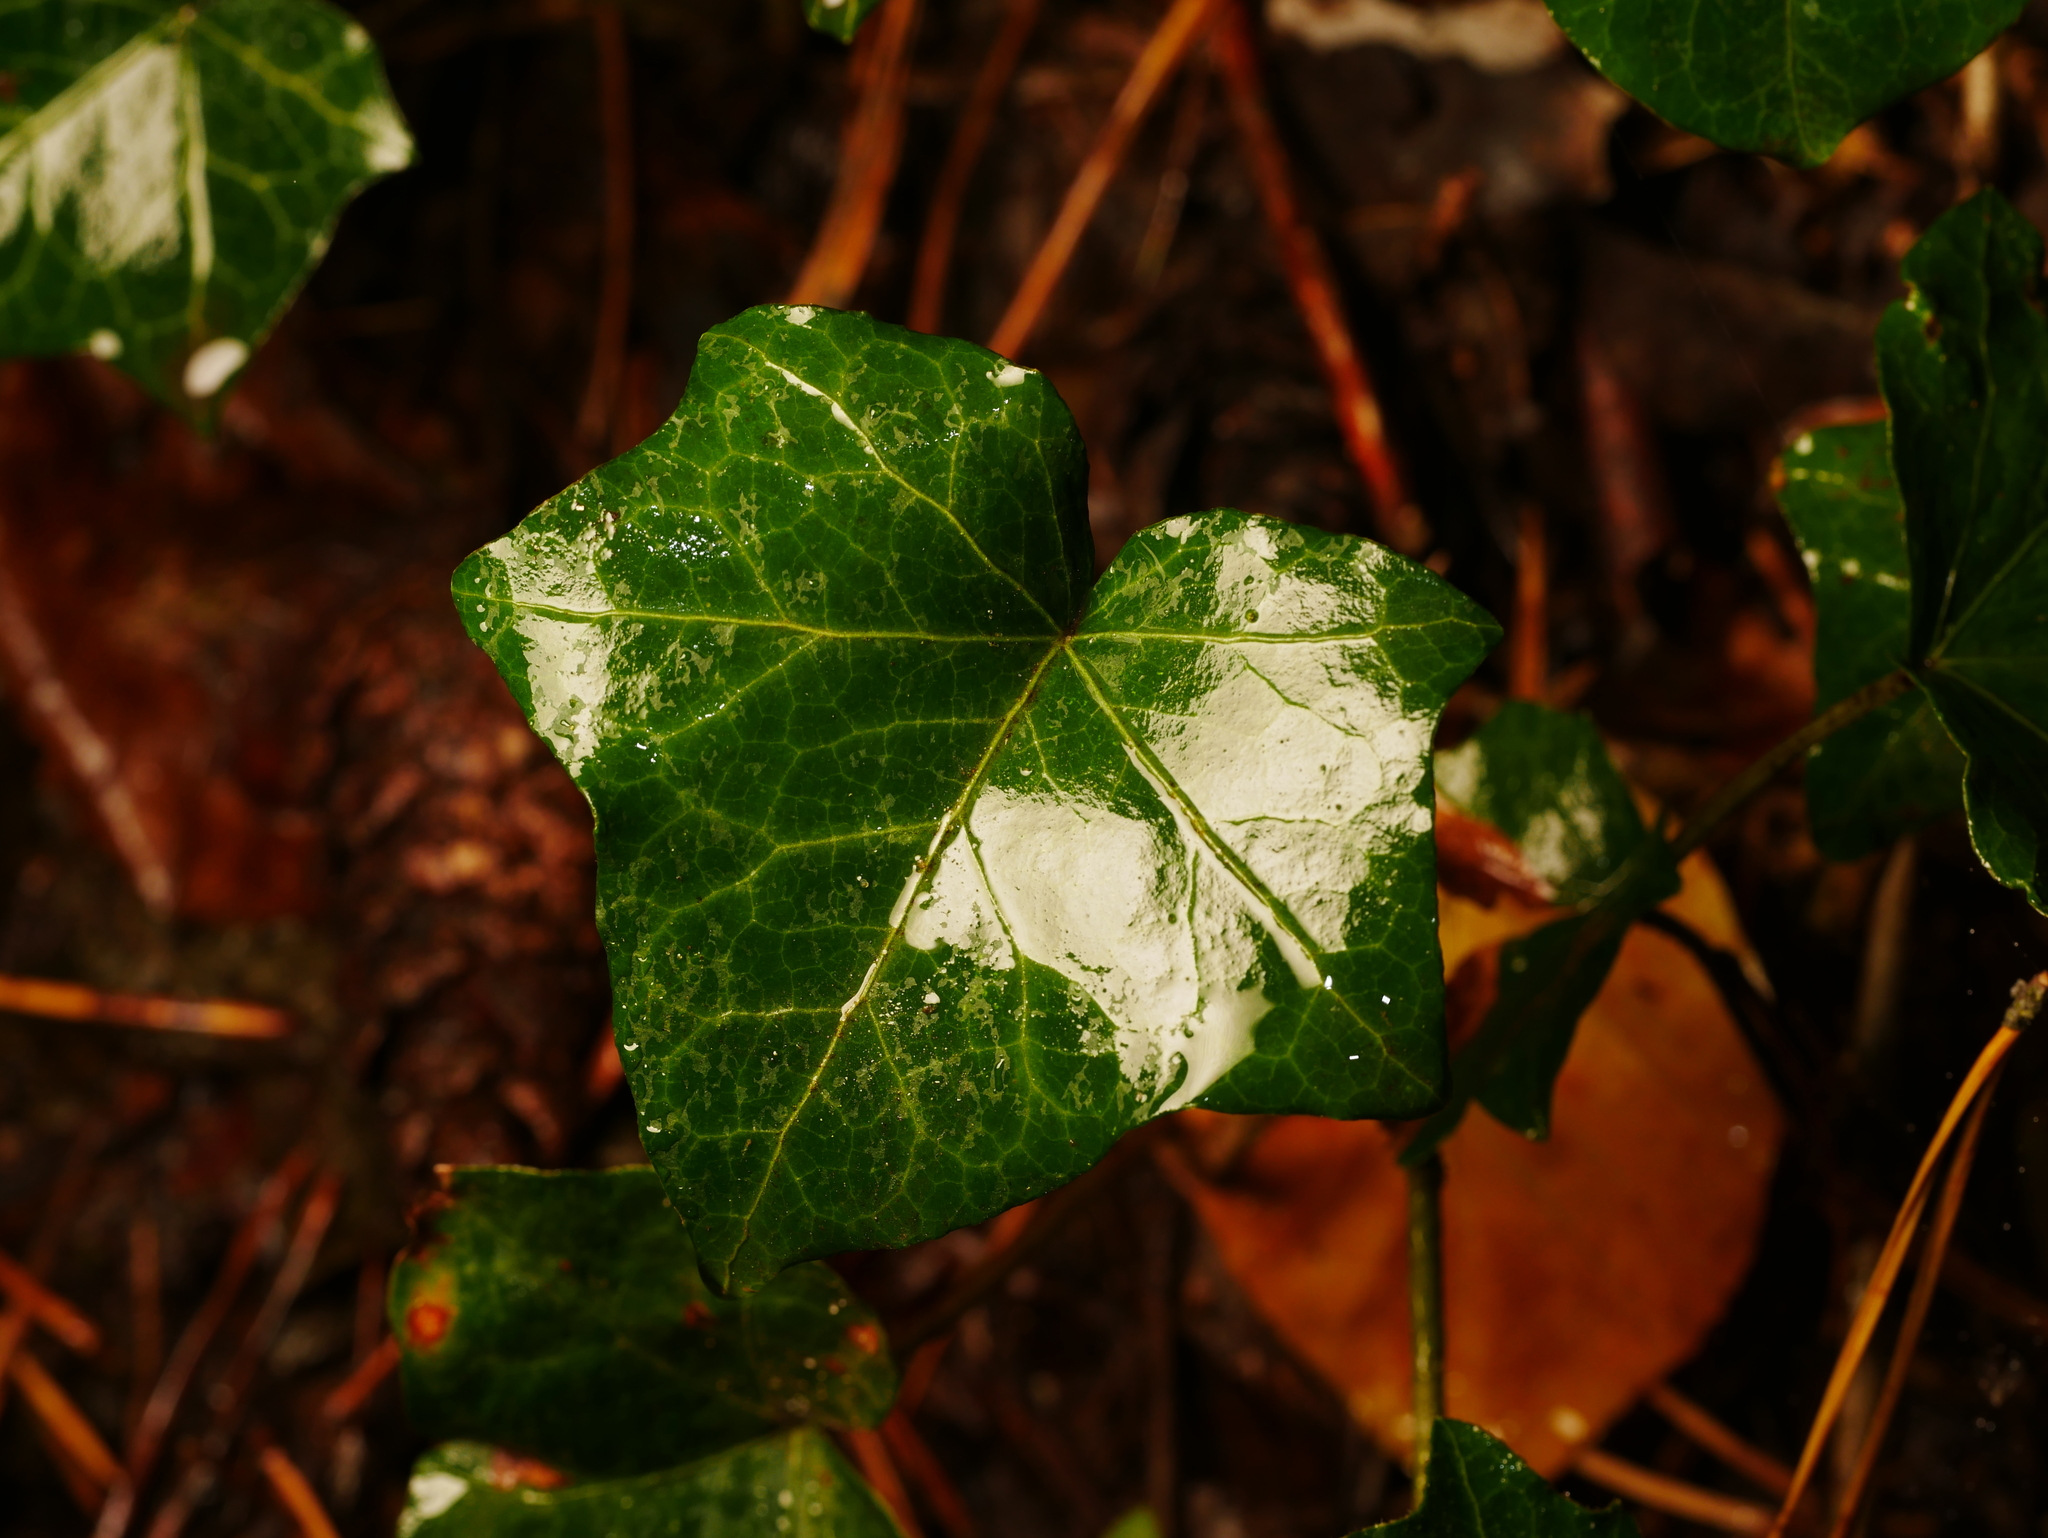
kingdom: Plantae
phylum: Tracheophyta
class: Magnoliopsida
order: Apiales
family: Araliaceae
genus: Hedera
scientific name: Hedera helix
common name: Ivy
